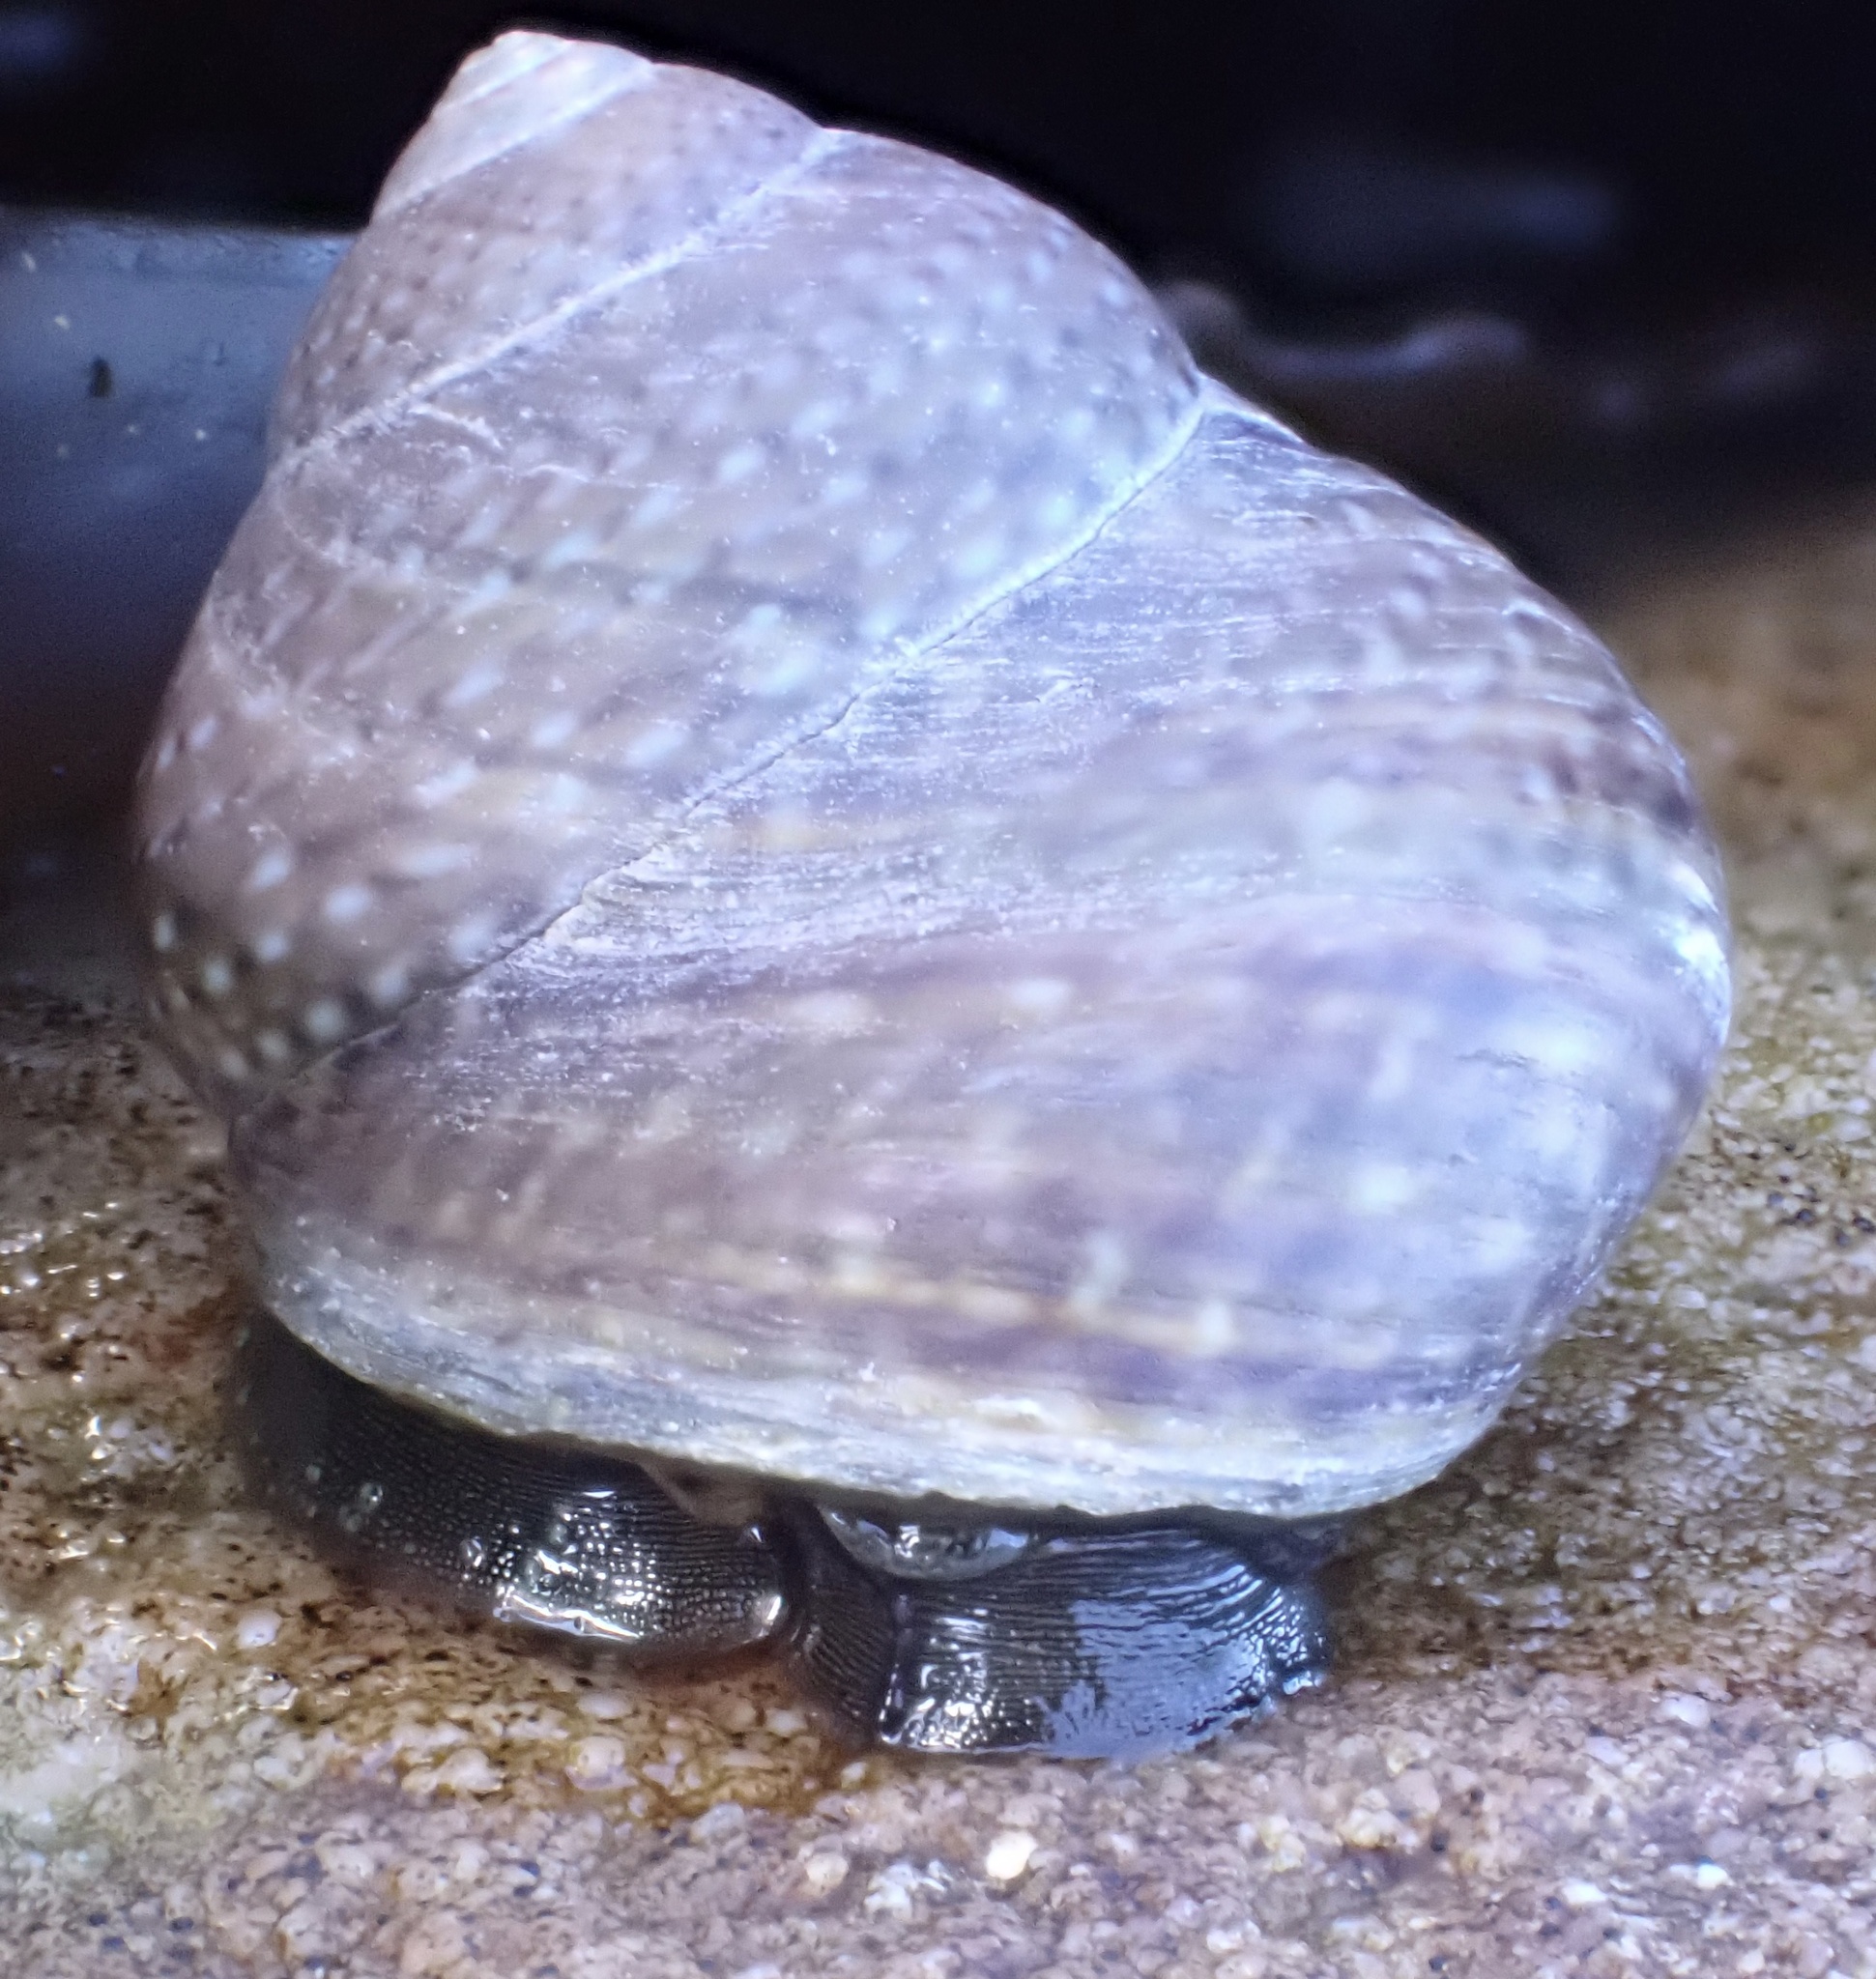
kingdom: Animalia
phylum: Mollusca
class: Gastropoda
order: Trochida
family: Trochidae
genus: Oxystele
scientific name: Oxystele impervia
